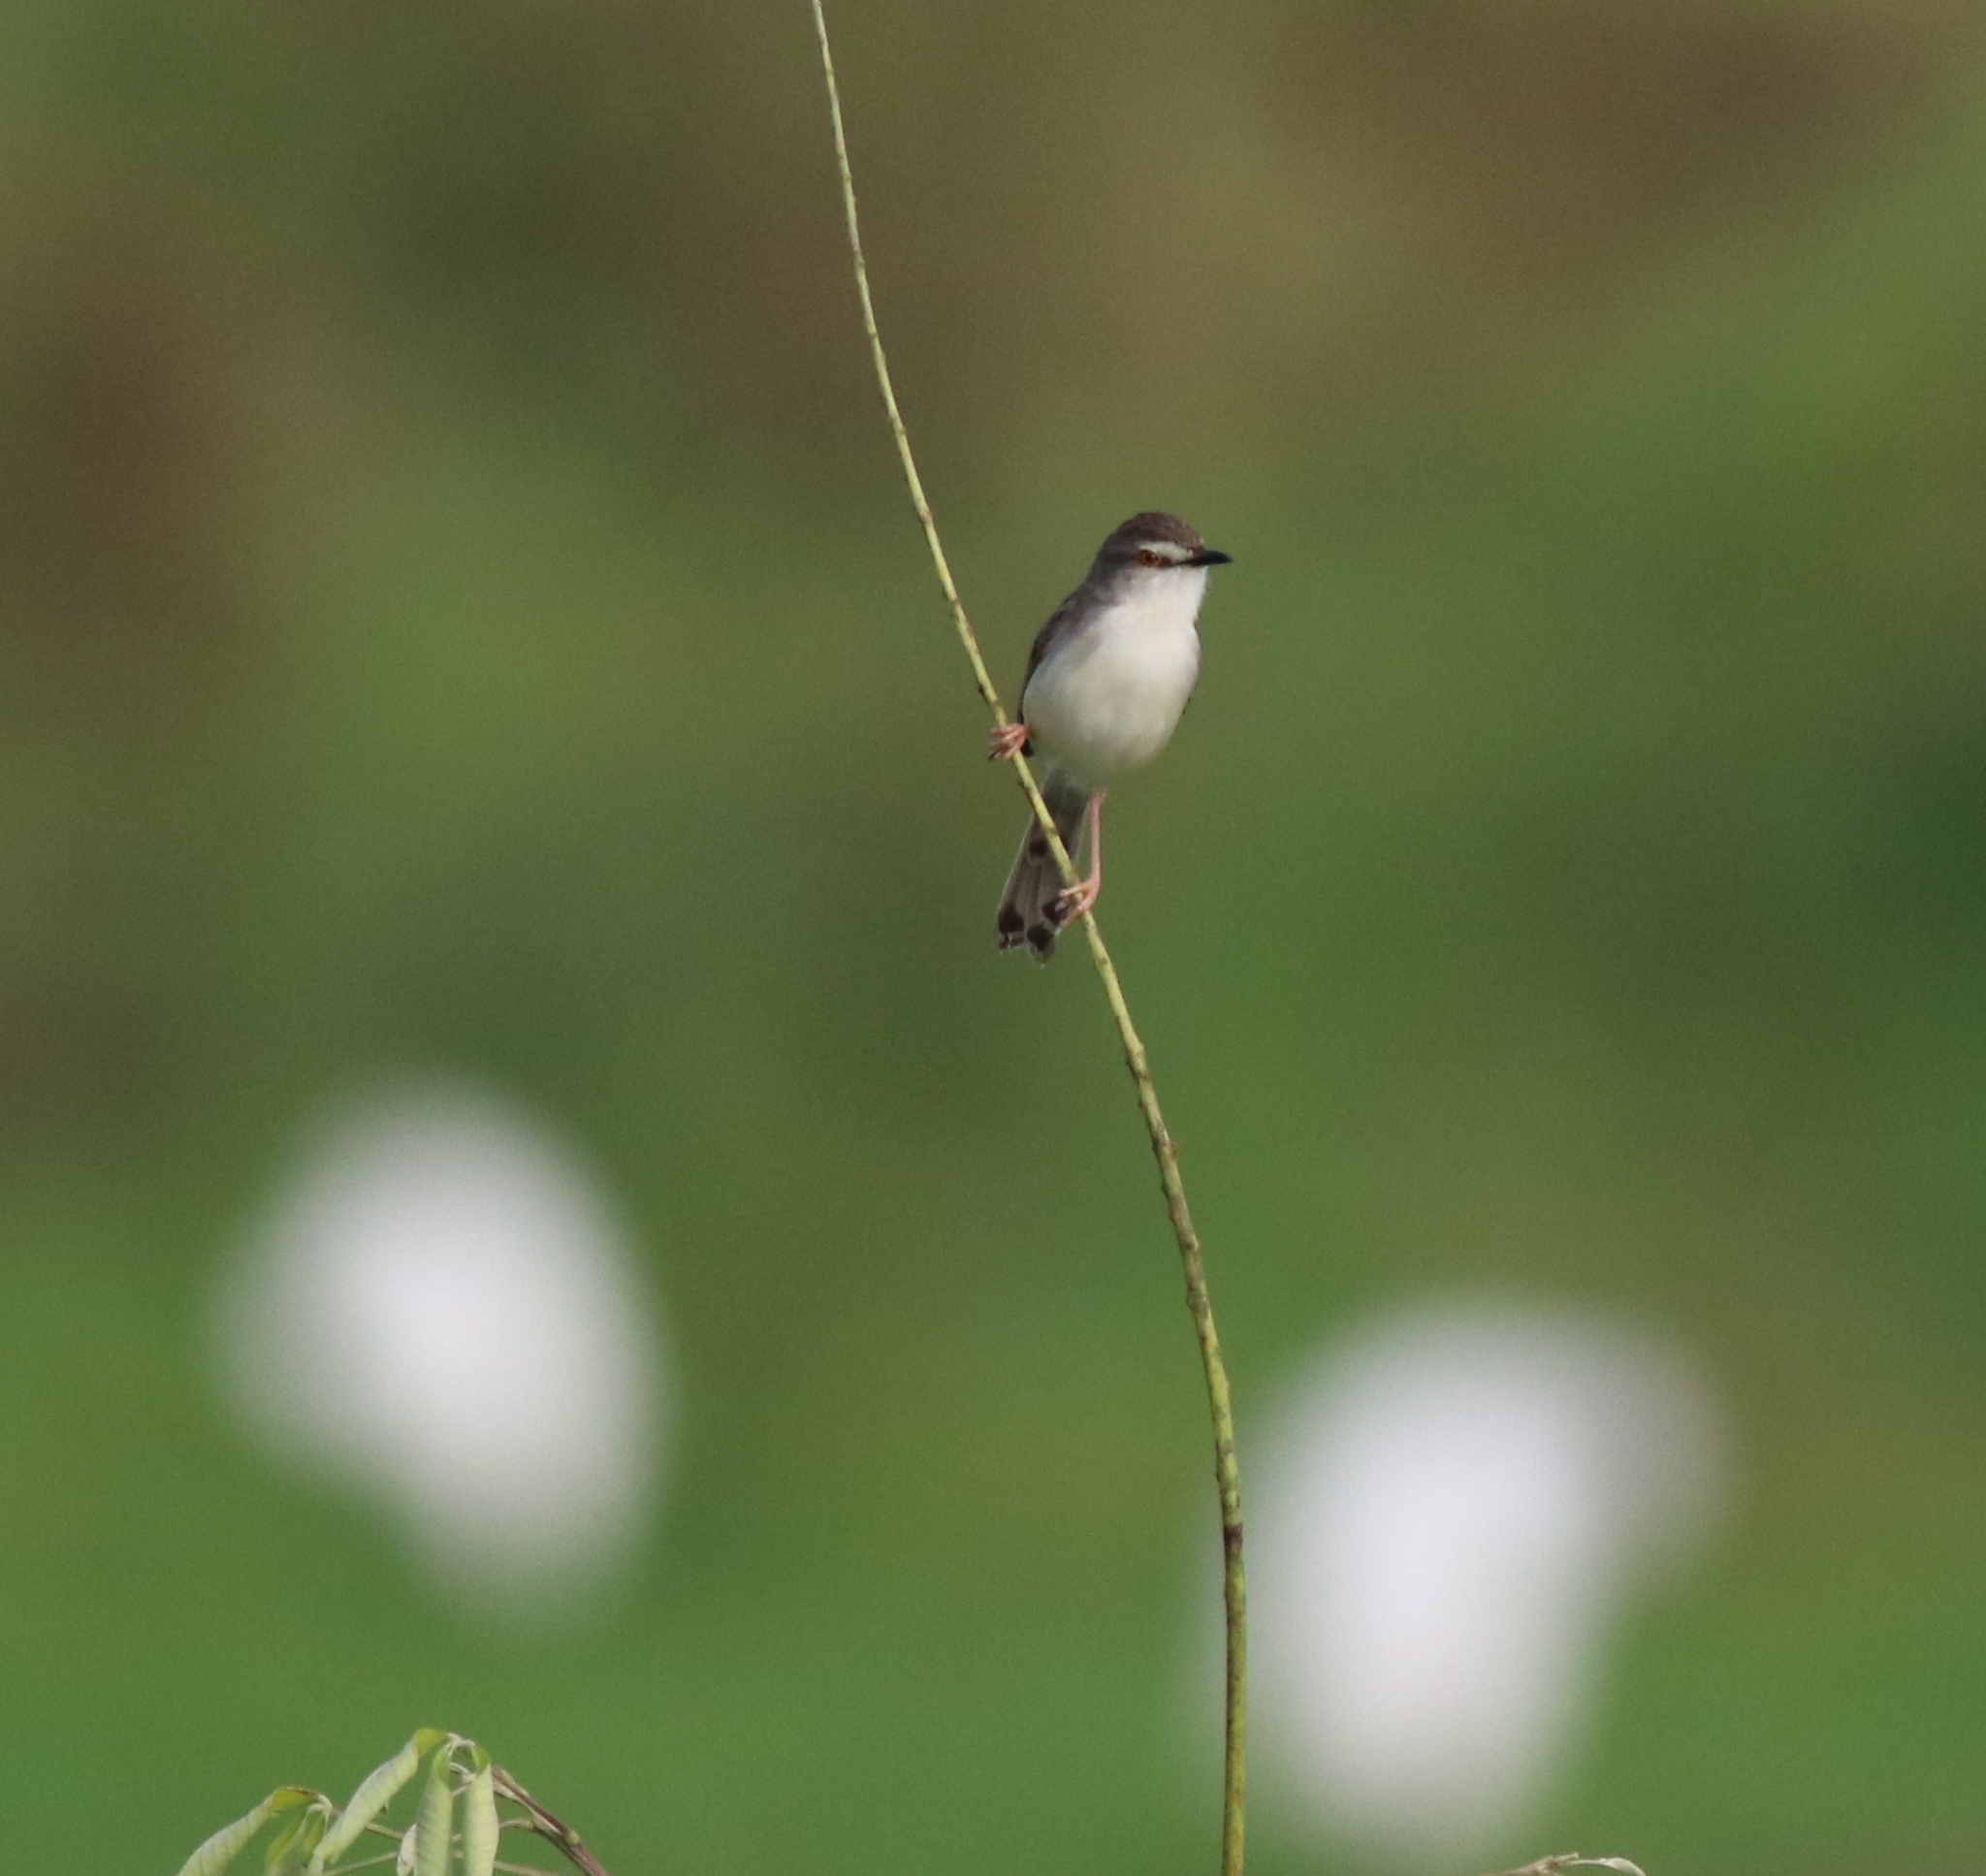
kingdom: Animalia
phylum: Chordata
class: Aves
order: Passeriformes
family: Cisticolidae
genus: Prinia
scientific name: Prinia inornata
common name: Plain prinia
